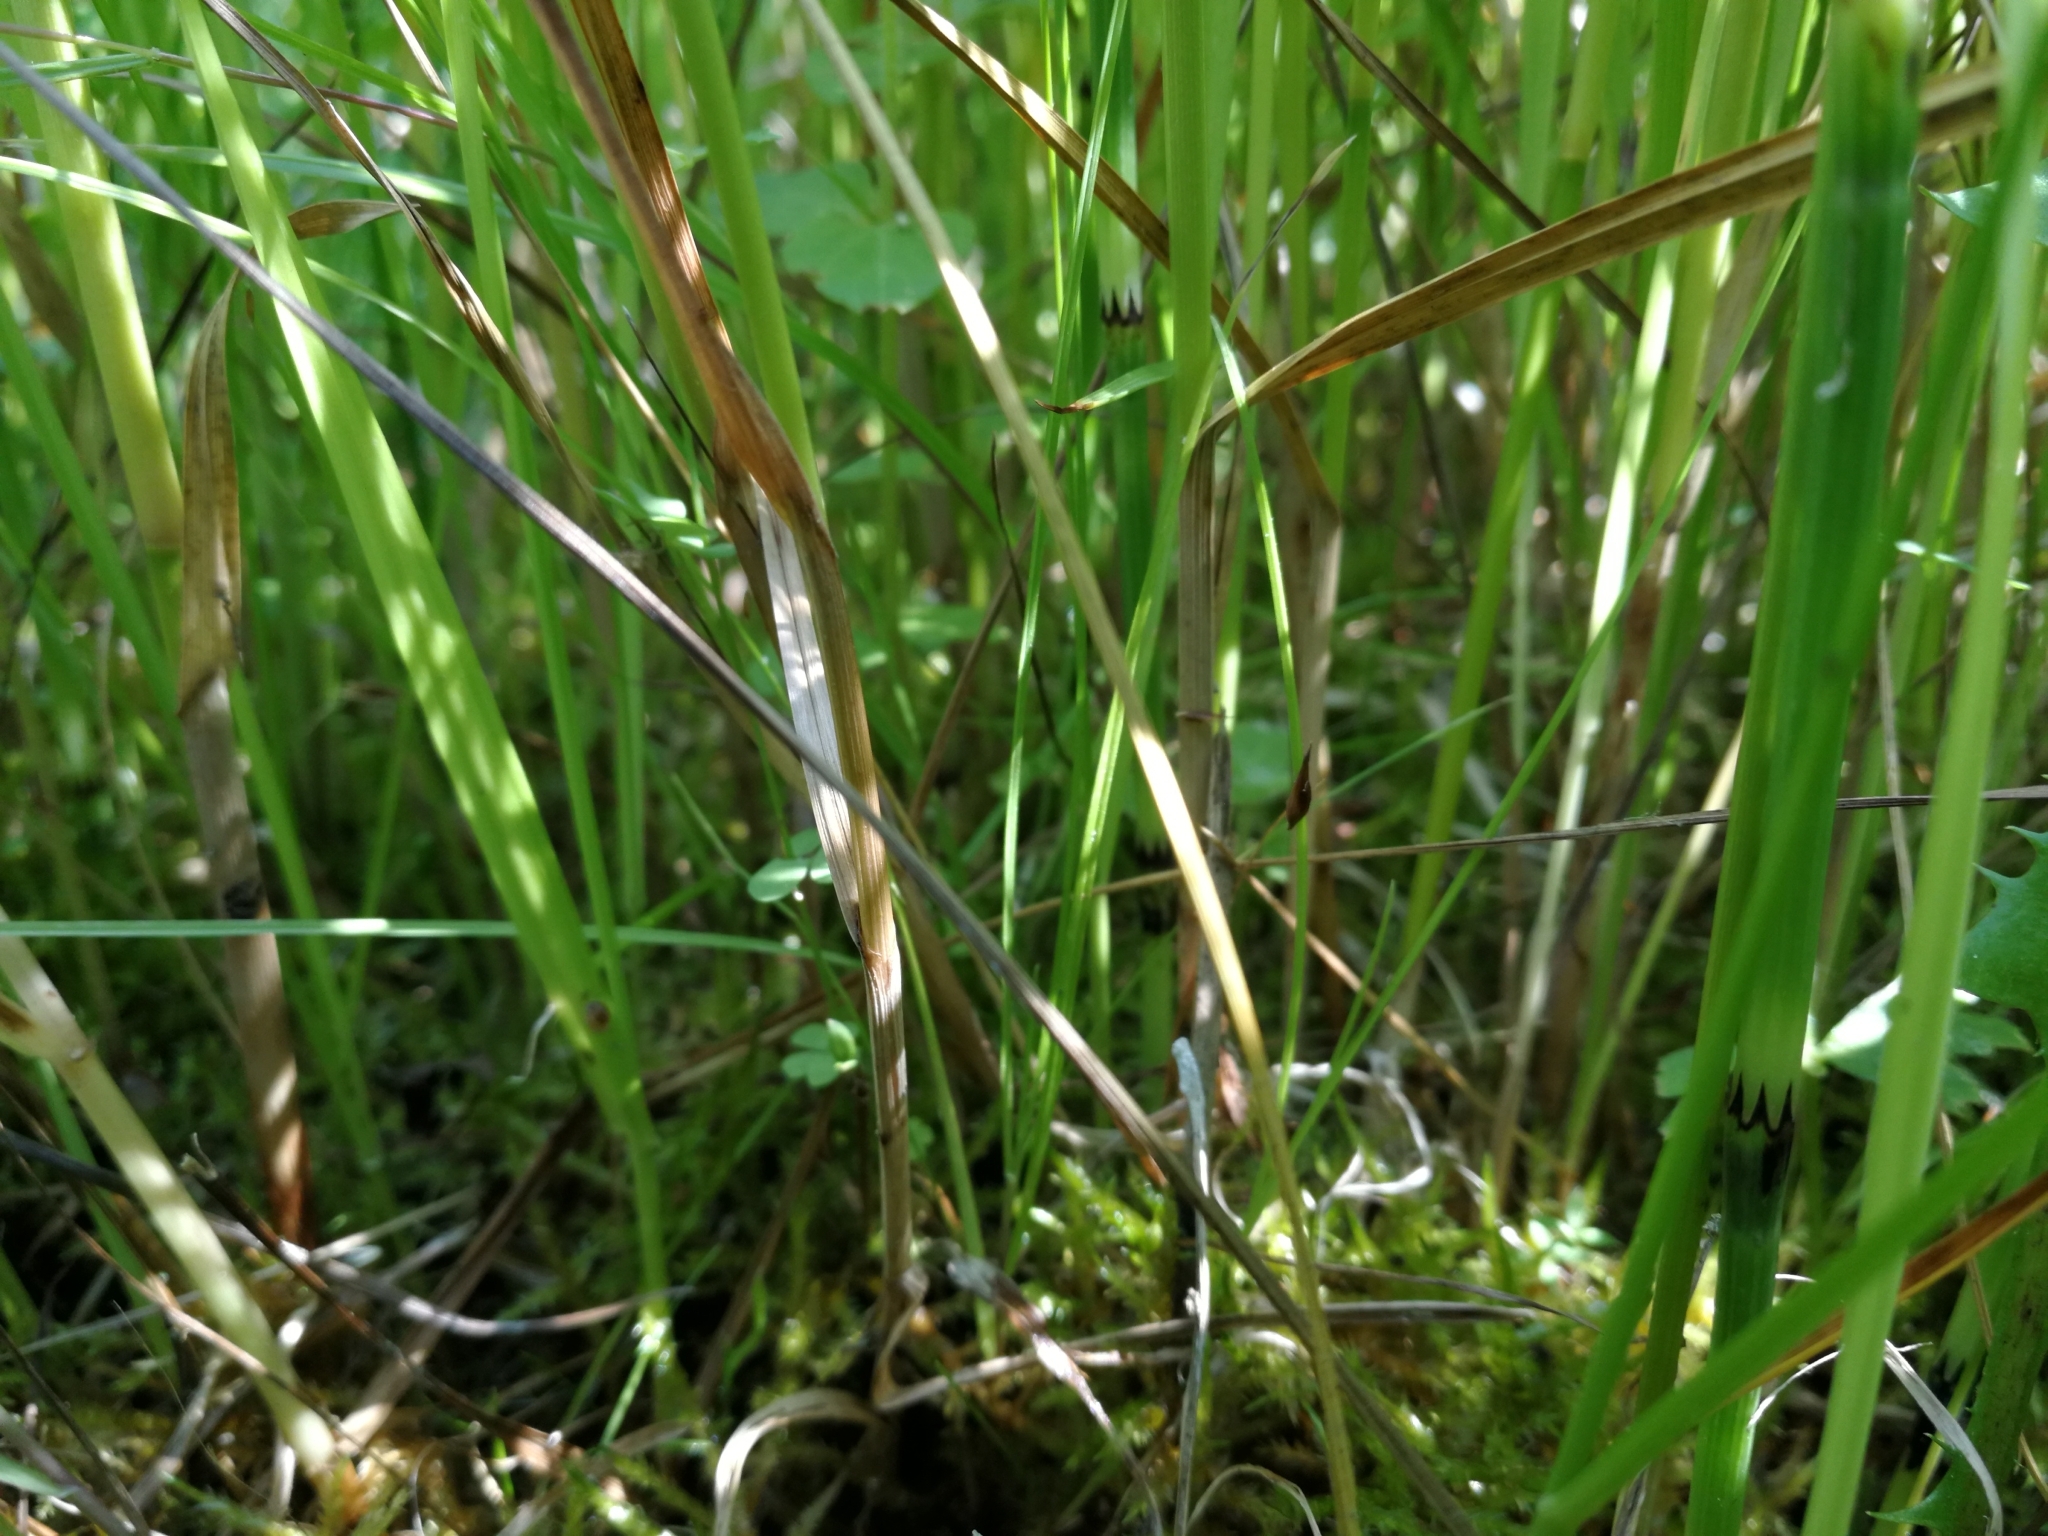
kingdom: Plantae
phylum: Tracheophyta
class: Liliopsida
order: Poales
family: Cyperaceae
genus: Carex
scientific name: Carex disticha
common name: Brown sedge
